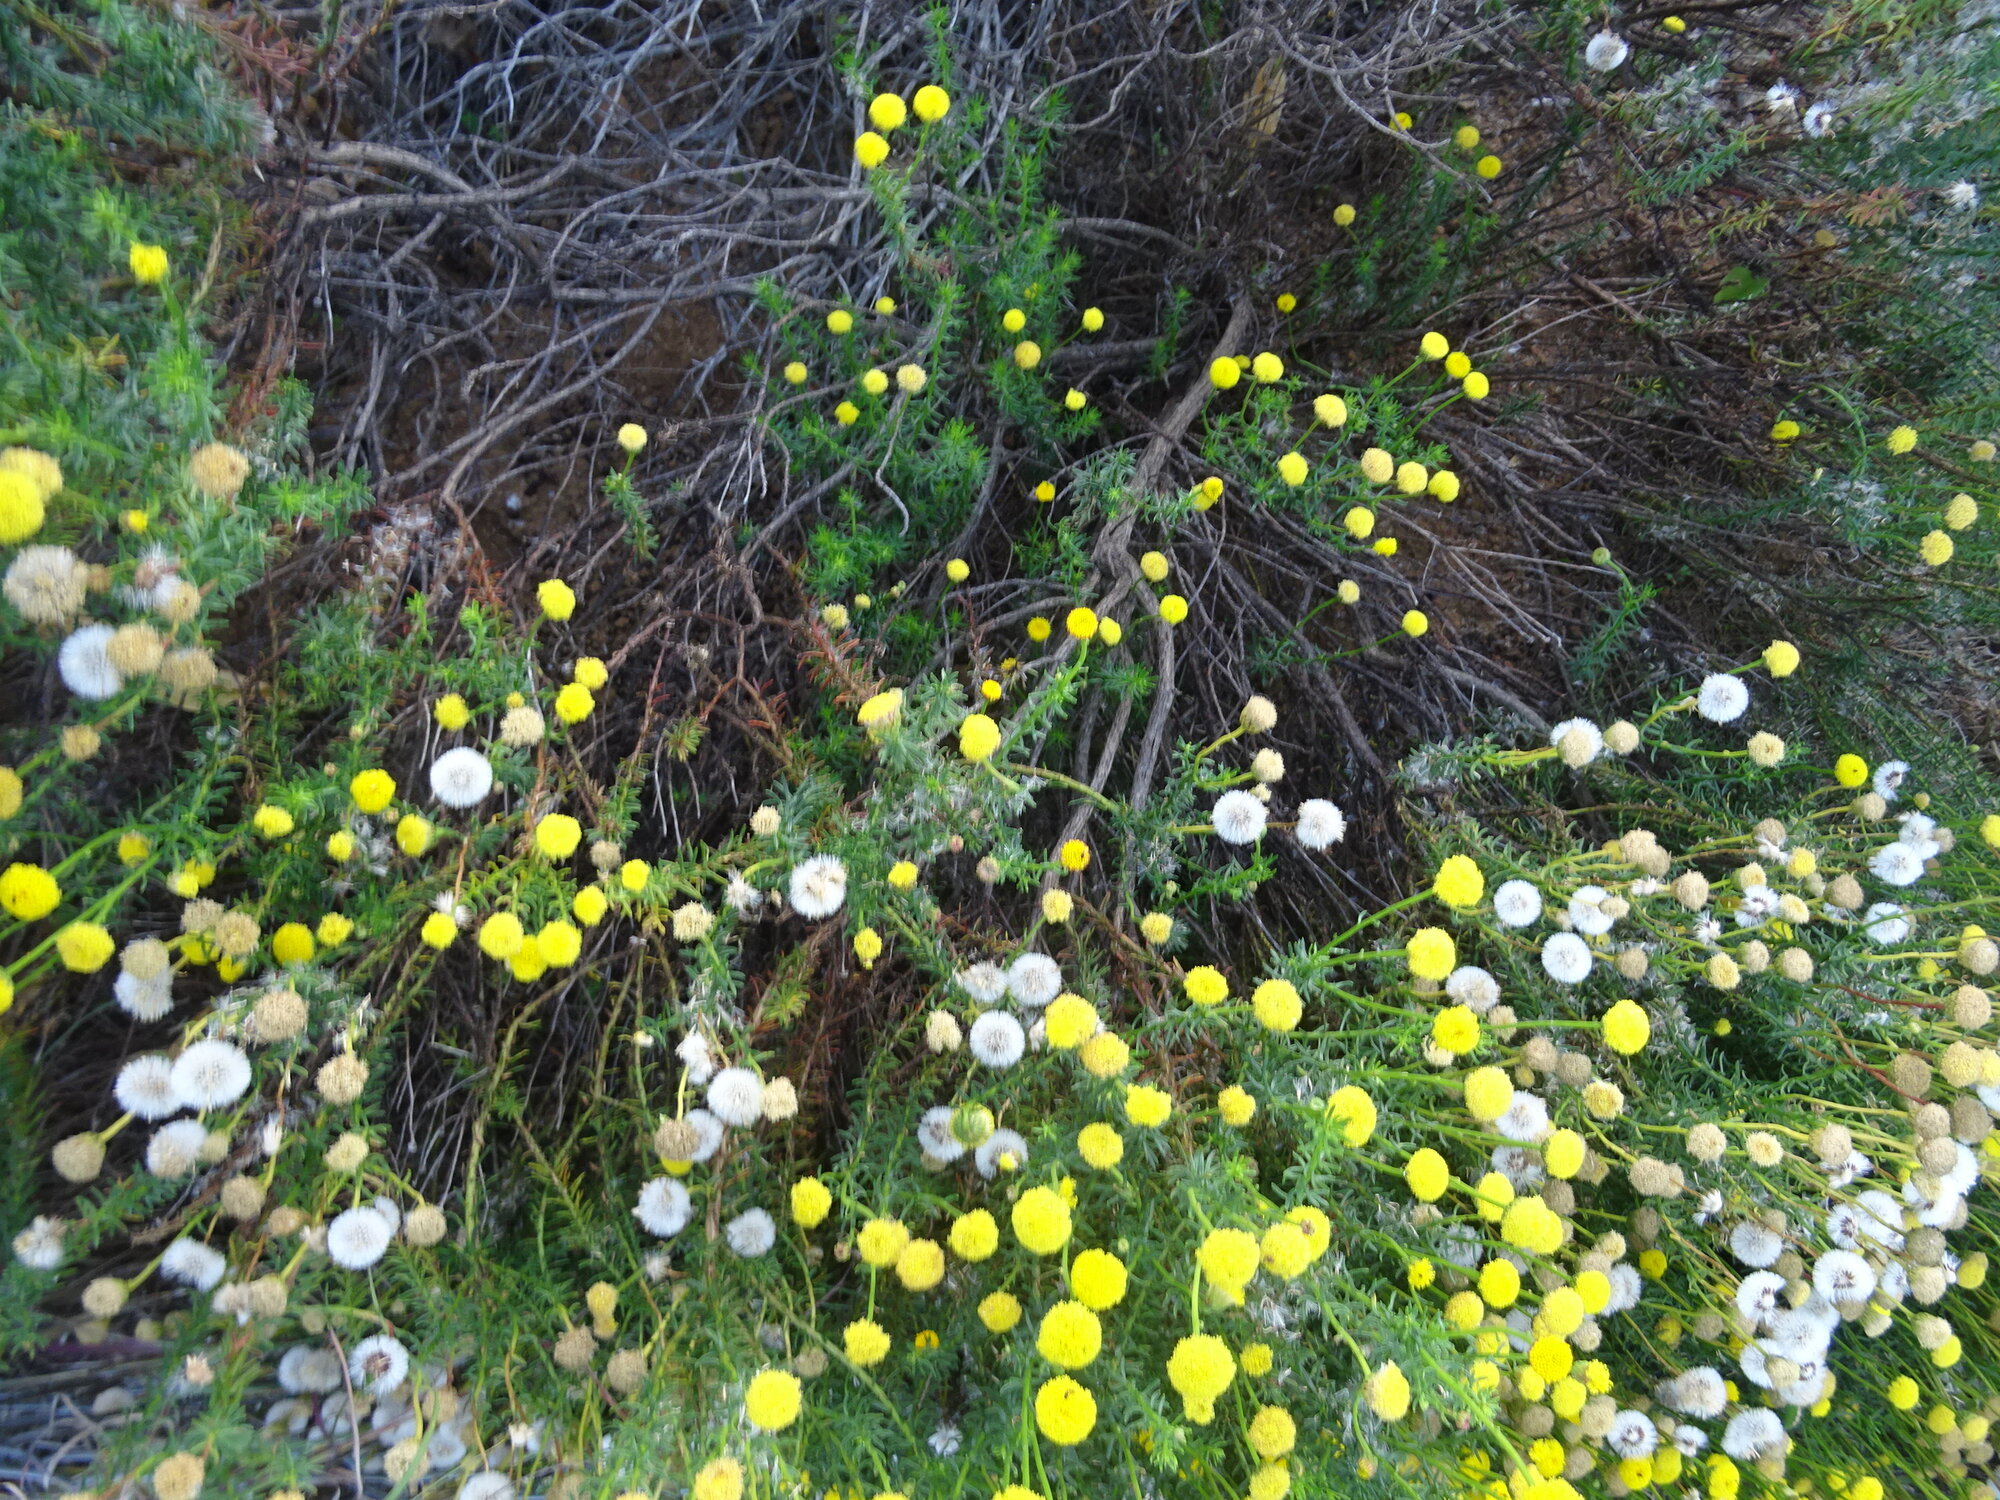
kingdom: Plantae
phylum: Tracheophyta
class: Magnoliopsida
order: Asterales
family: Asteraceae
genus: Chrysocoma
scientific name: Chrysocoma cernua
